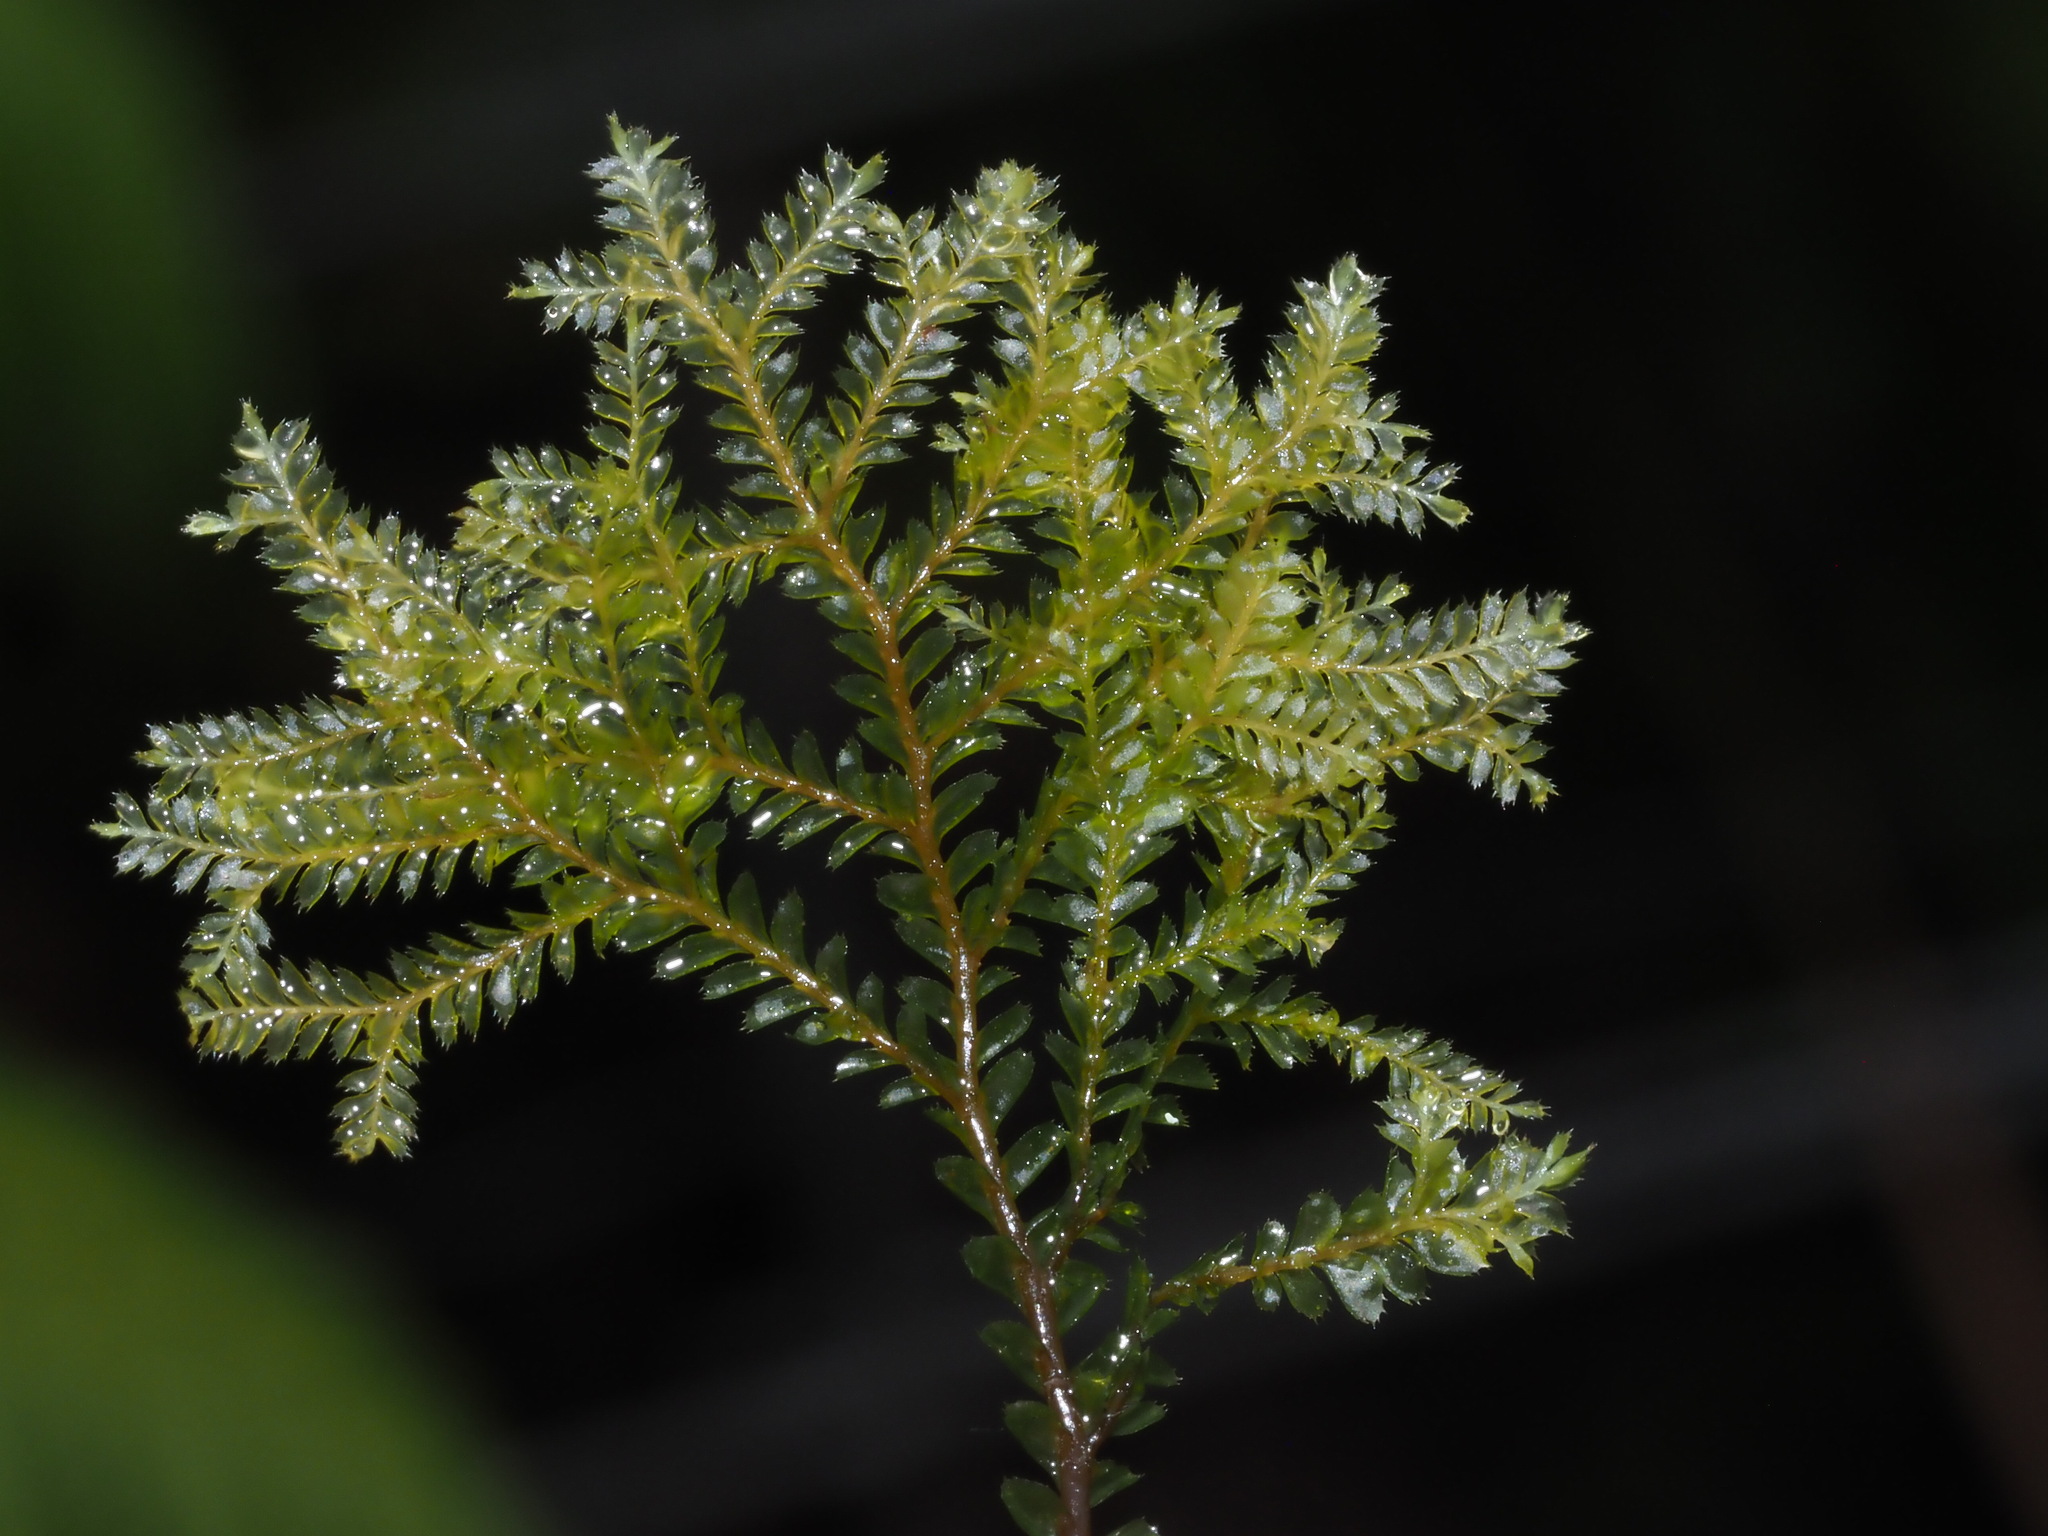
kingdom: Plantae
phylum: Marchantiophyta
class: Jungermanniopsida
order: Jungermanniales
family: Plagiochilaceae
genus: Plagiochila
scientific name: Plagiochila mauiensis
